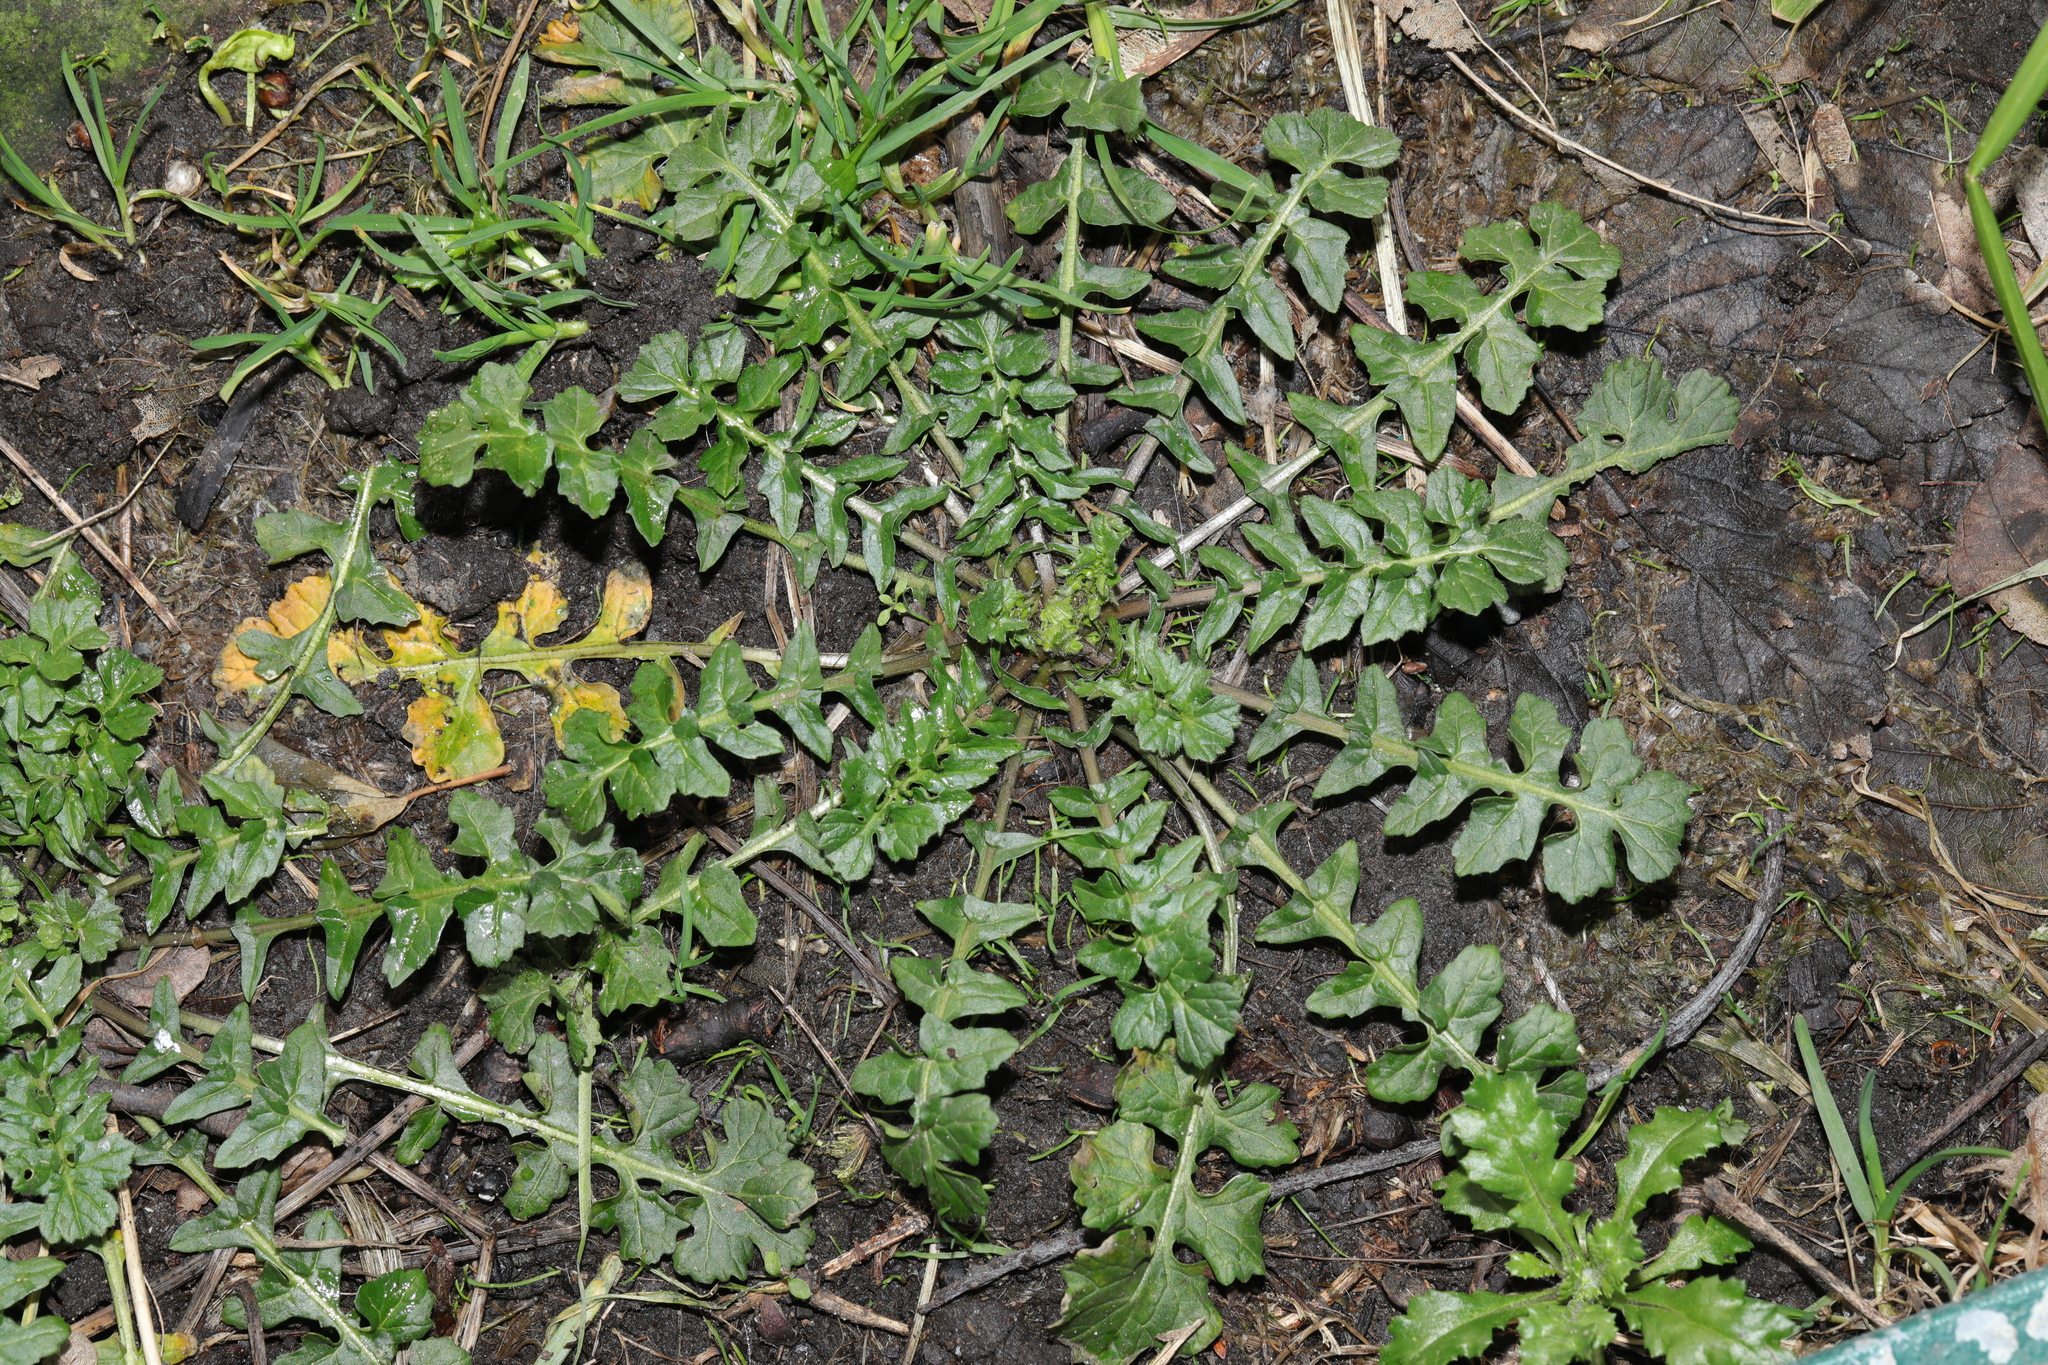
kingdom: Plantae
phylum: Tracheophyta
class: Magnoliopsida
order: Brassicales
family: Brassicaceae
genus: Sisymbrium
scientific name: Sisymbrium officinale
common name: Hedge mustard
